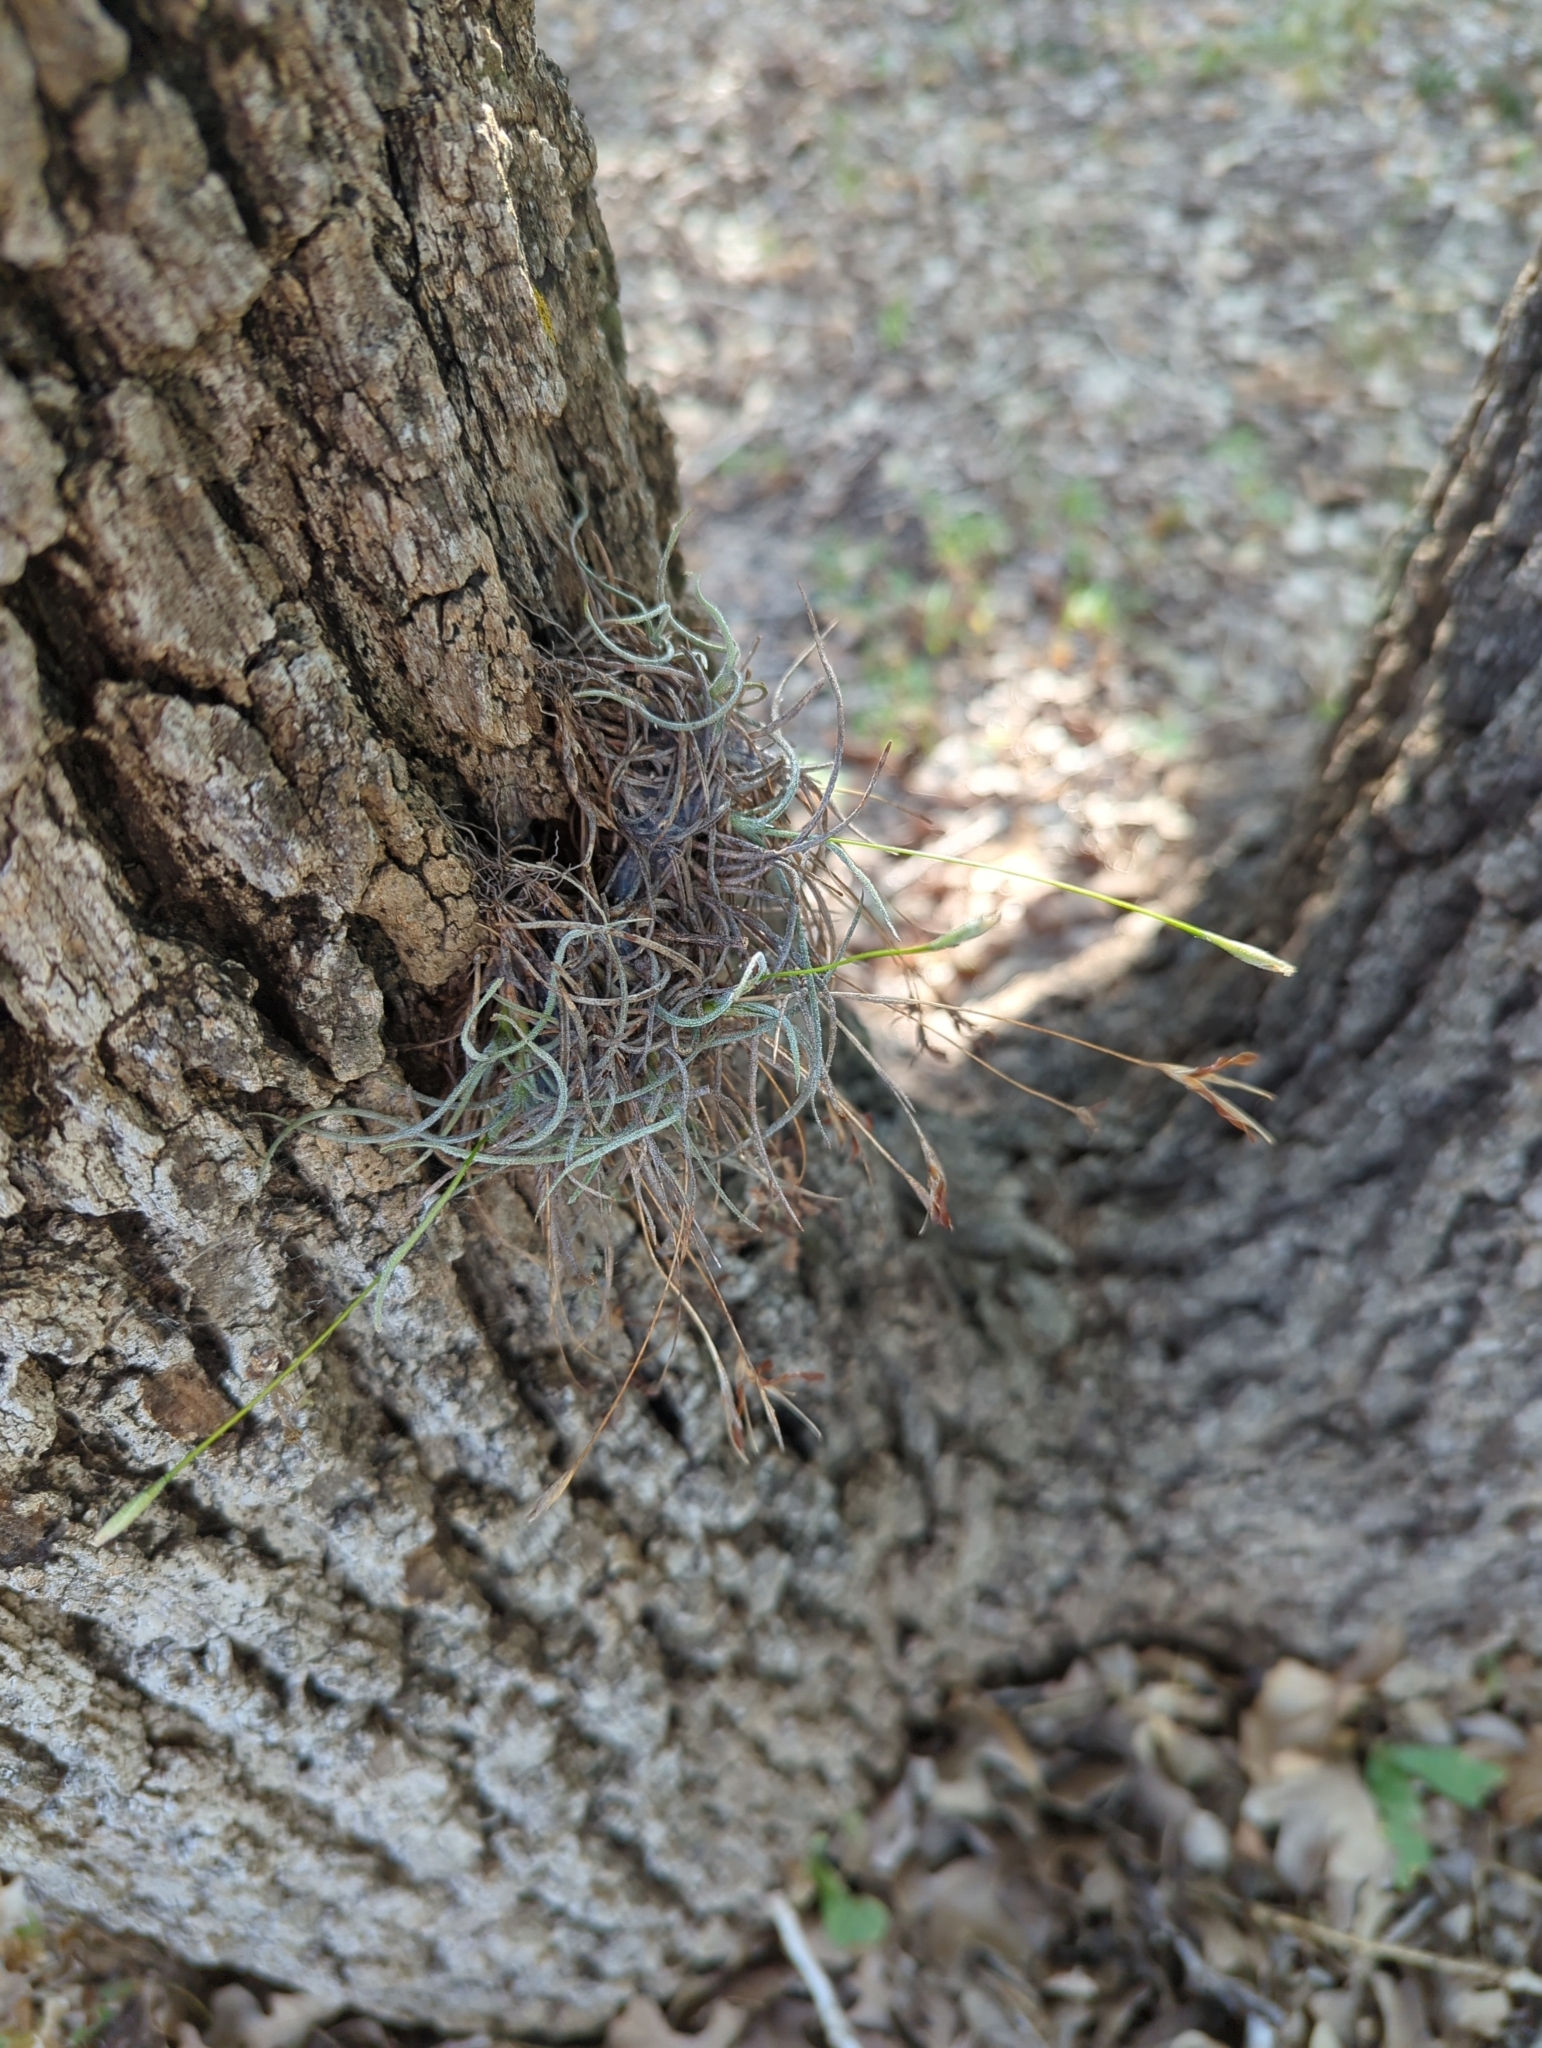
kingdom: Plantae
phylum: Tracheophyta
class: Liliopsida
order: Poales
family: Bromeliaceae
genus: Tillandsia
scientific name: Tillandsia recurvata
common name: Small ballmoss
